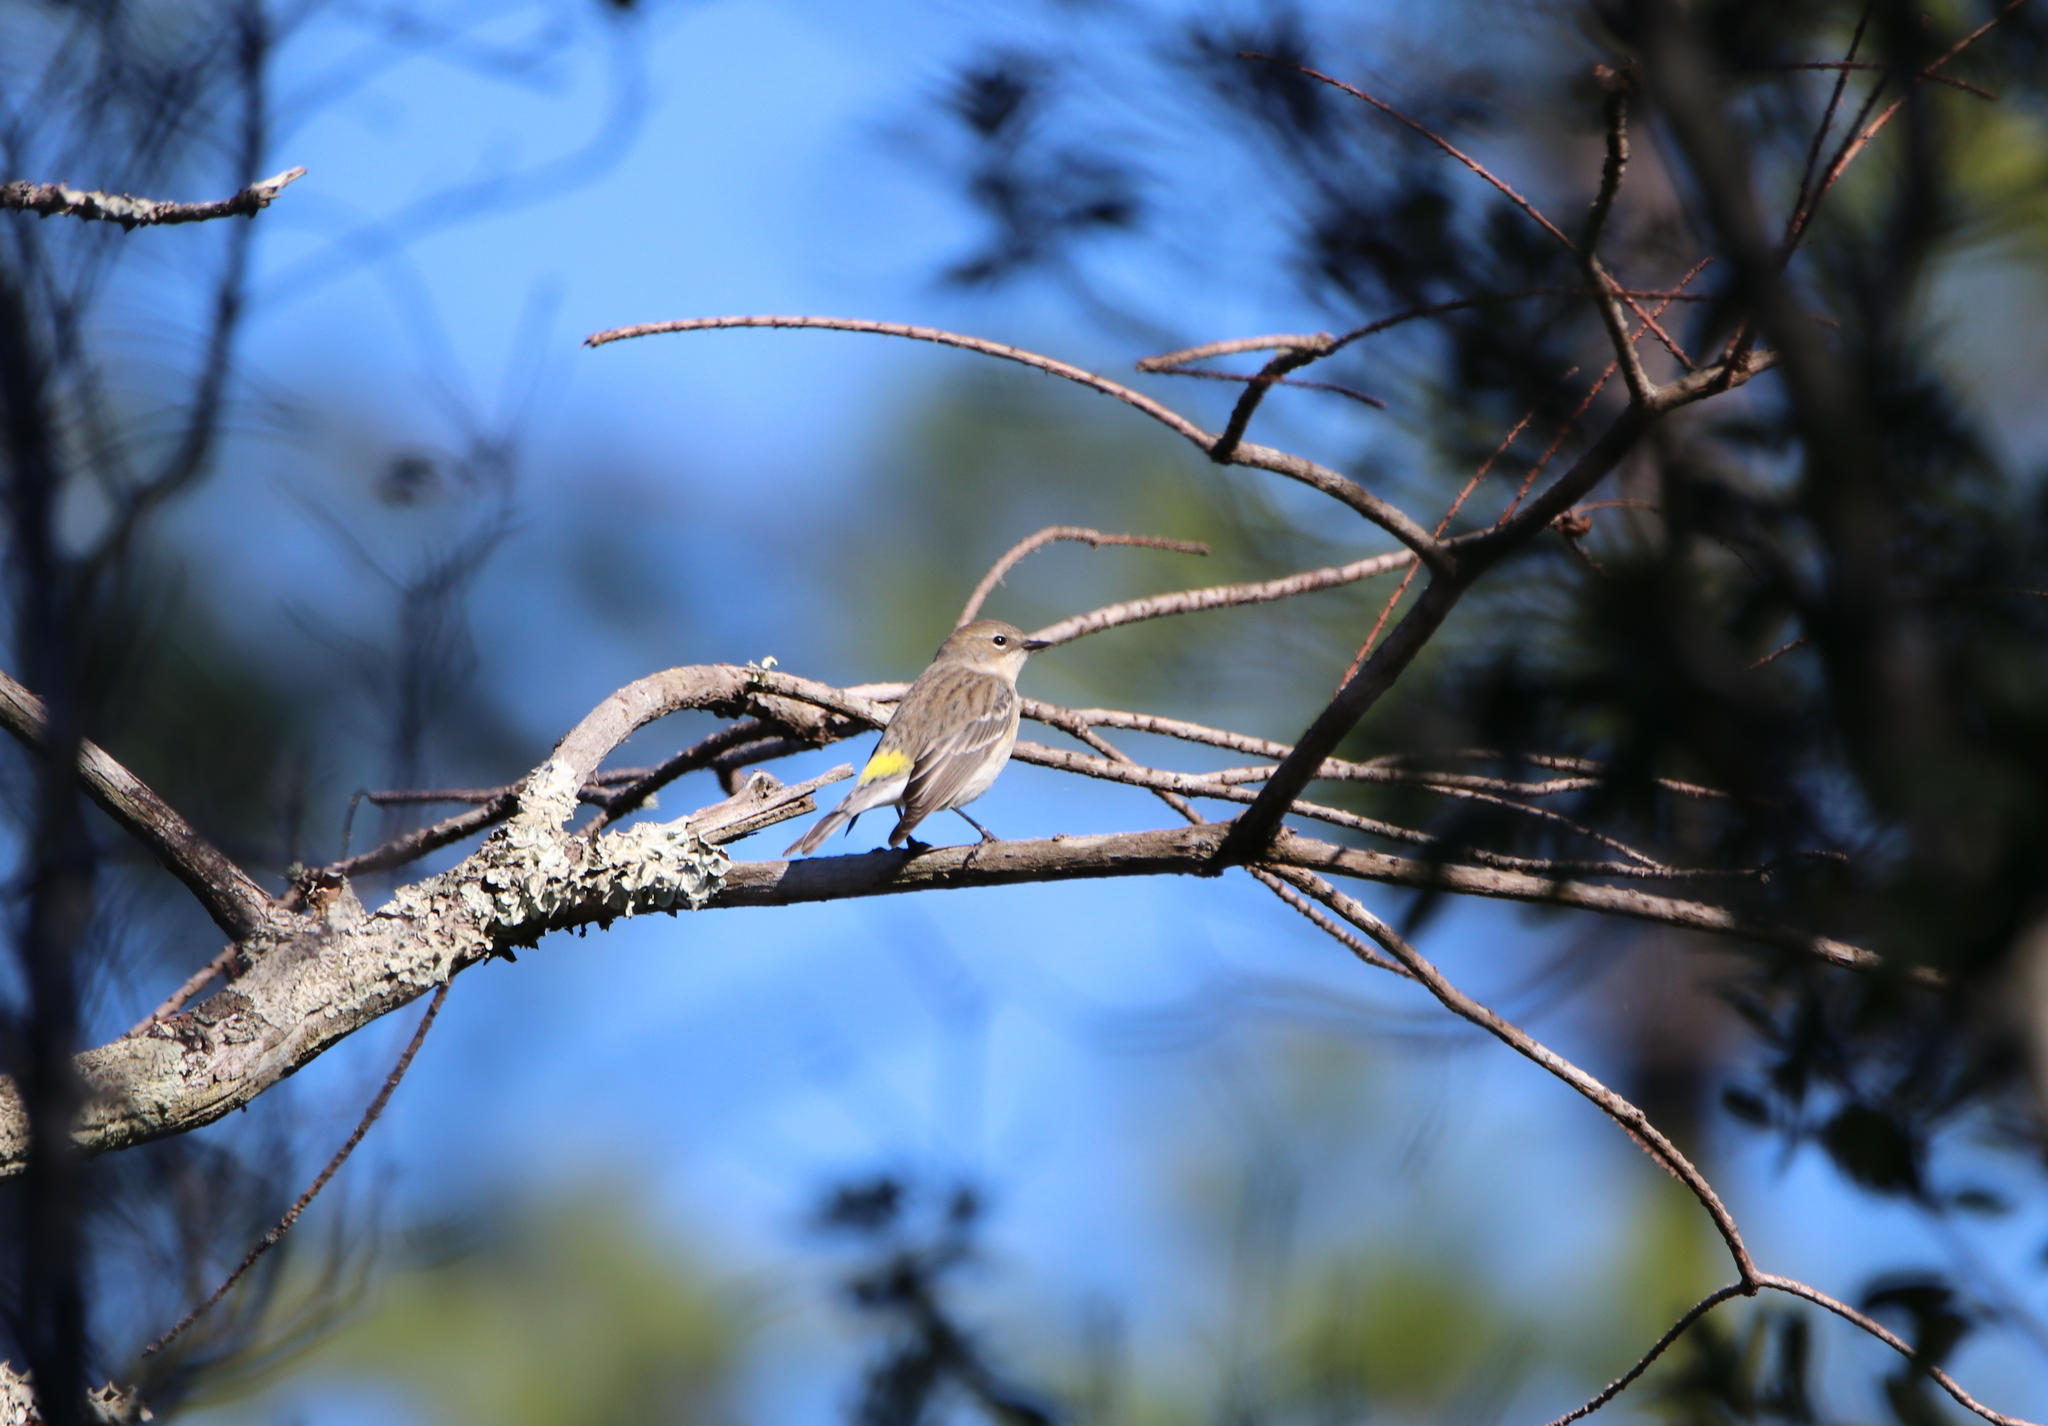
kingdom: Animalia
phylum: Chordata
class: Aves
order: Passeriformes
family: Parulidae
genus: Setophaga
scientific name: Setophaga coronata
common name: Myrtle warbler
